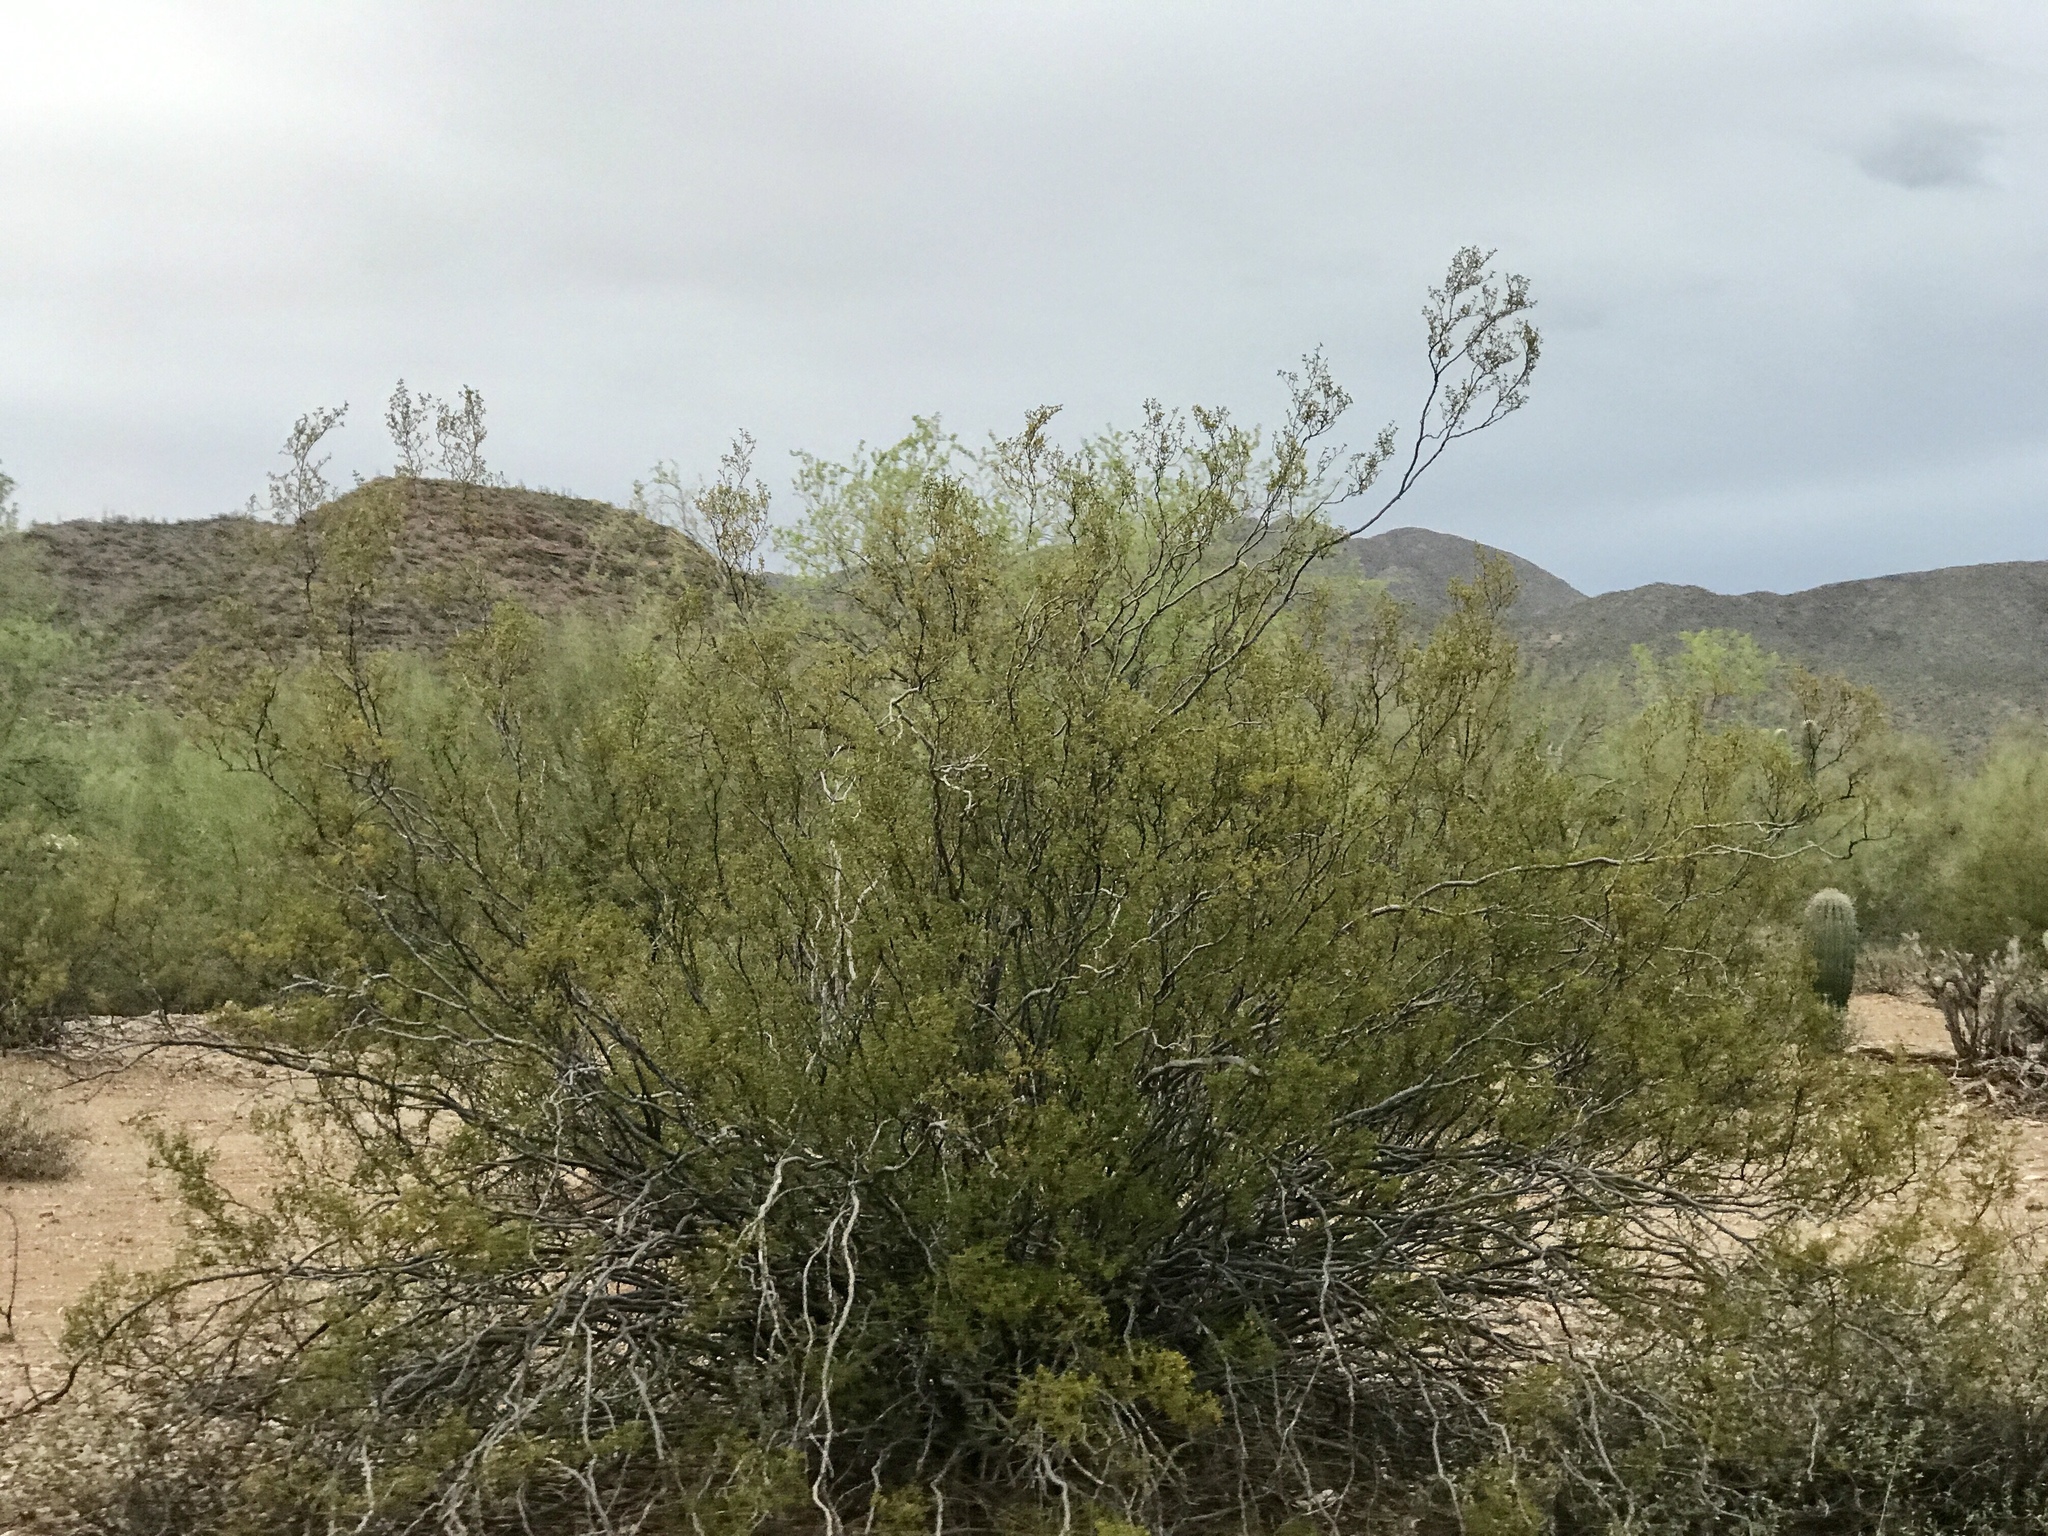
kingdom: Plantae
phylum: Tracheophyta
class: Magnoliopsida
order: Zygophyllales
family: Zygophyllaceae
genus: Larrea
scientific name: Larrea tridentata
